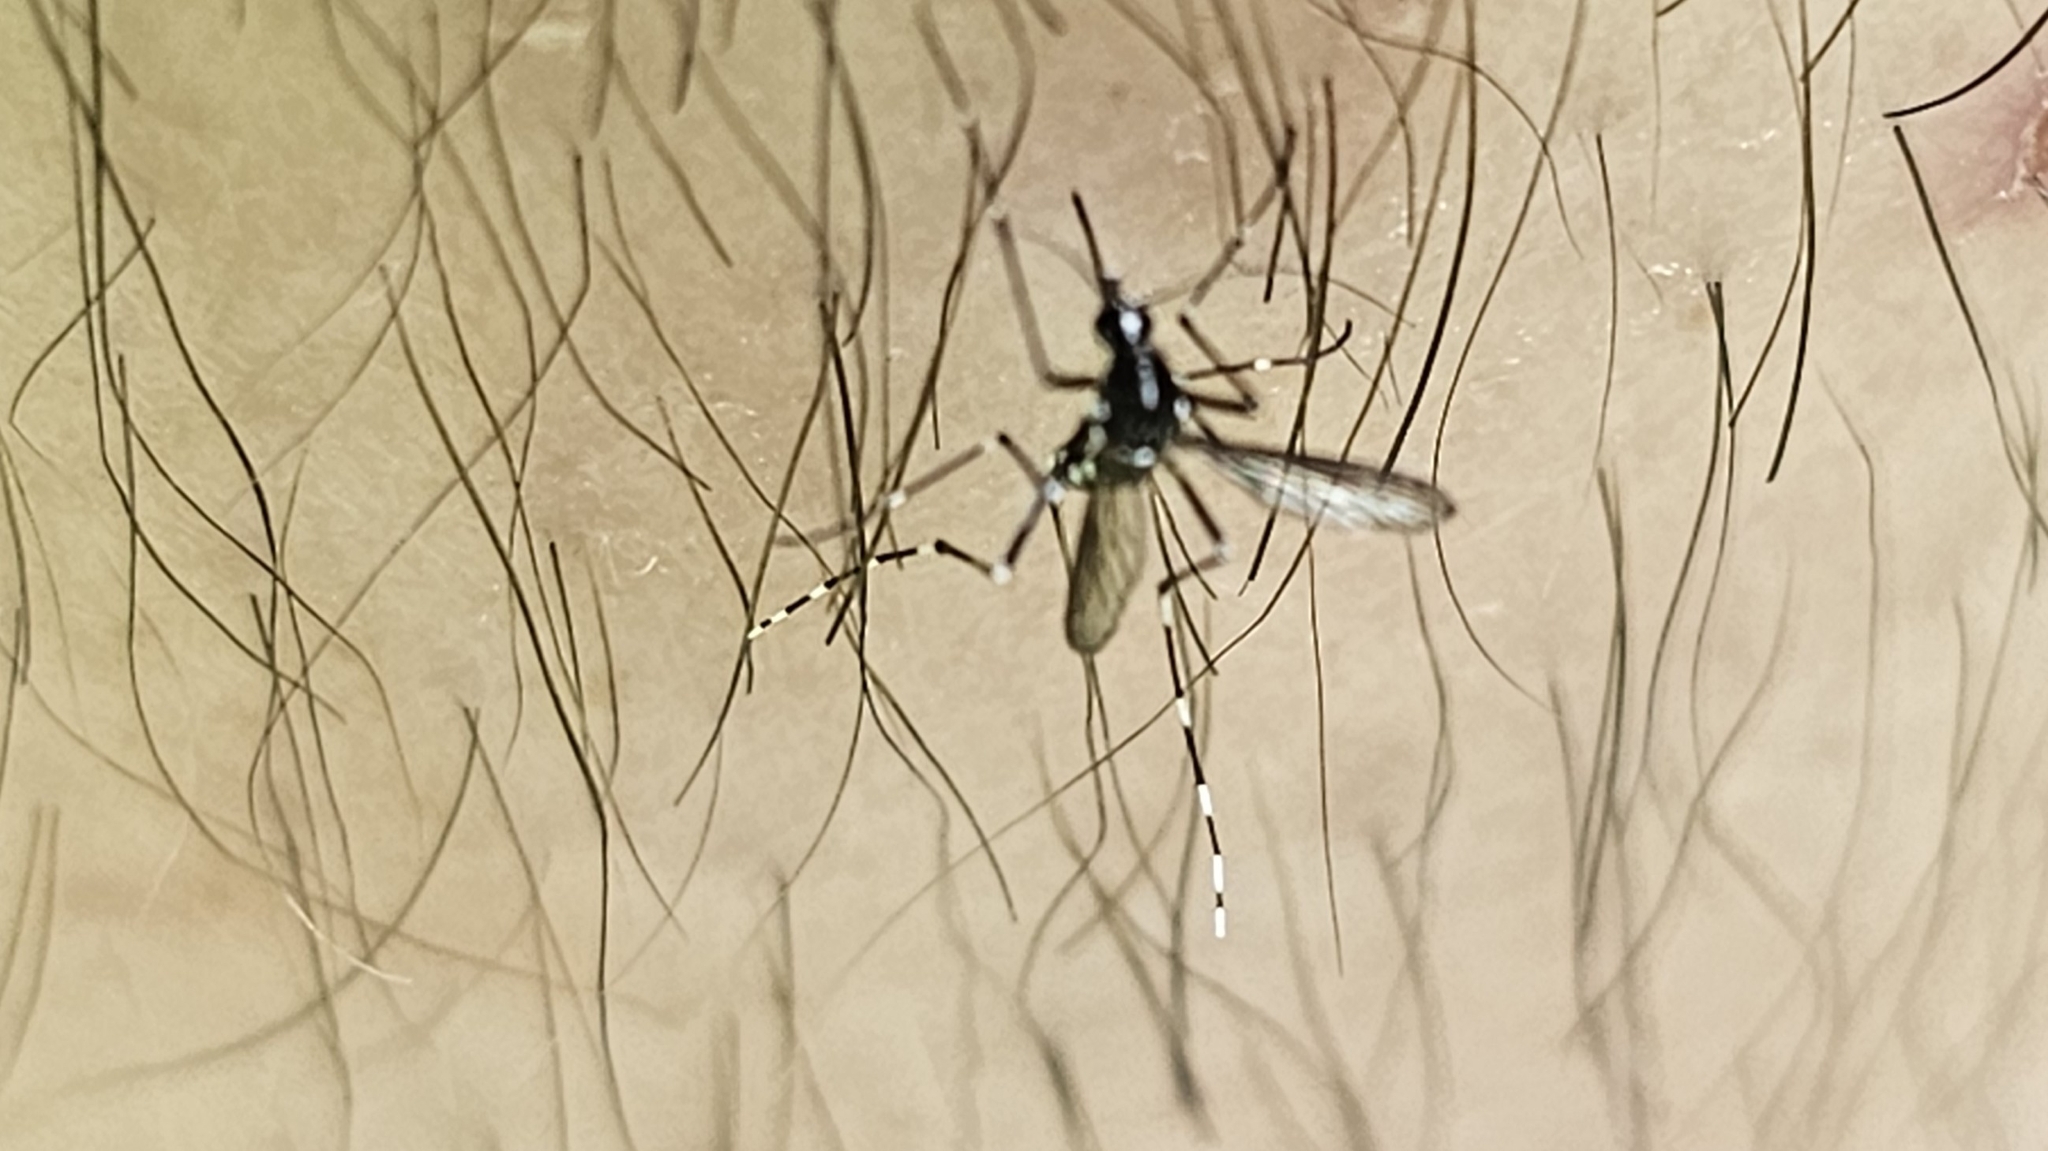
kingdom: Animalia
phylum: Arthropoda
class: Insecta
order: Diptera
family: Culicidae
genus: Aedes
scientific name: Aedes albopictus
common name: Tiger mosquito
